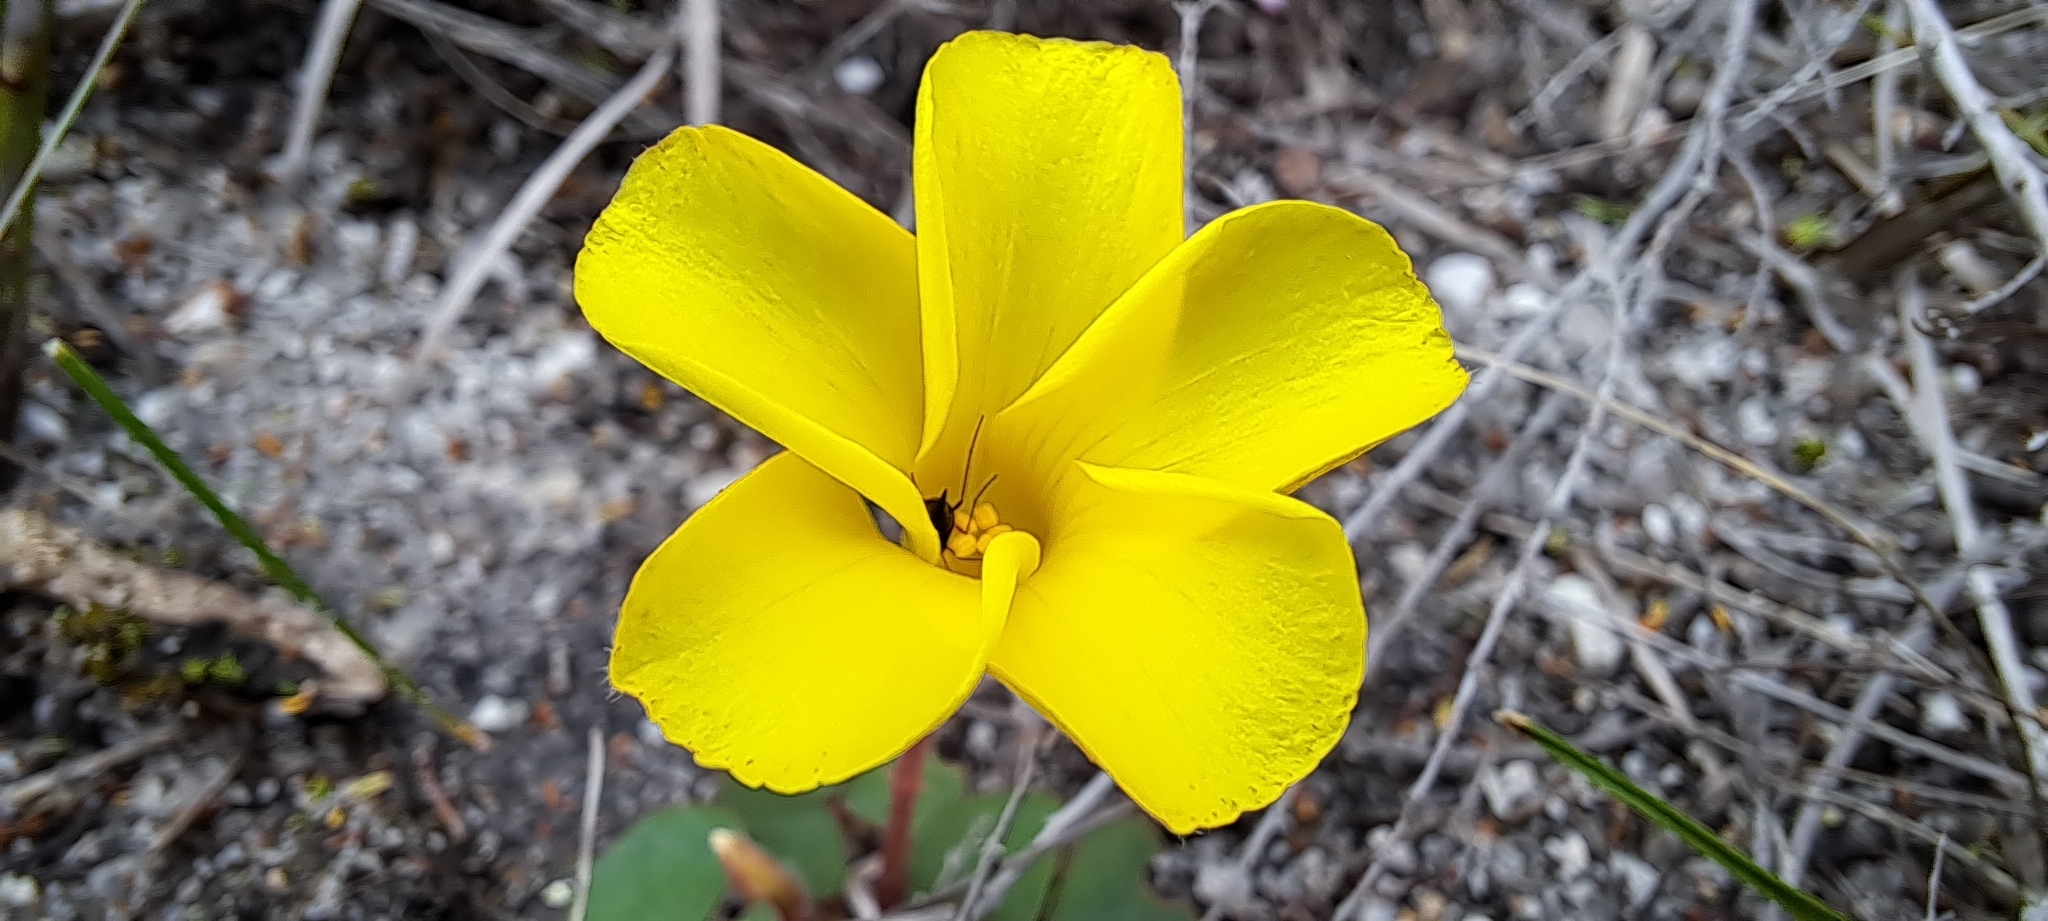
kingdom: Plantae
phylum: Tracheophyta
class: Magnoliopsida
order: Oxalidales
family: Oxalidaceae
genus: Oxalis
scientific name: Oxalis luteola
